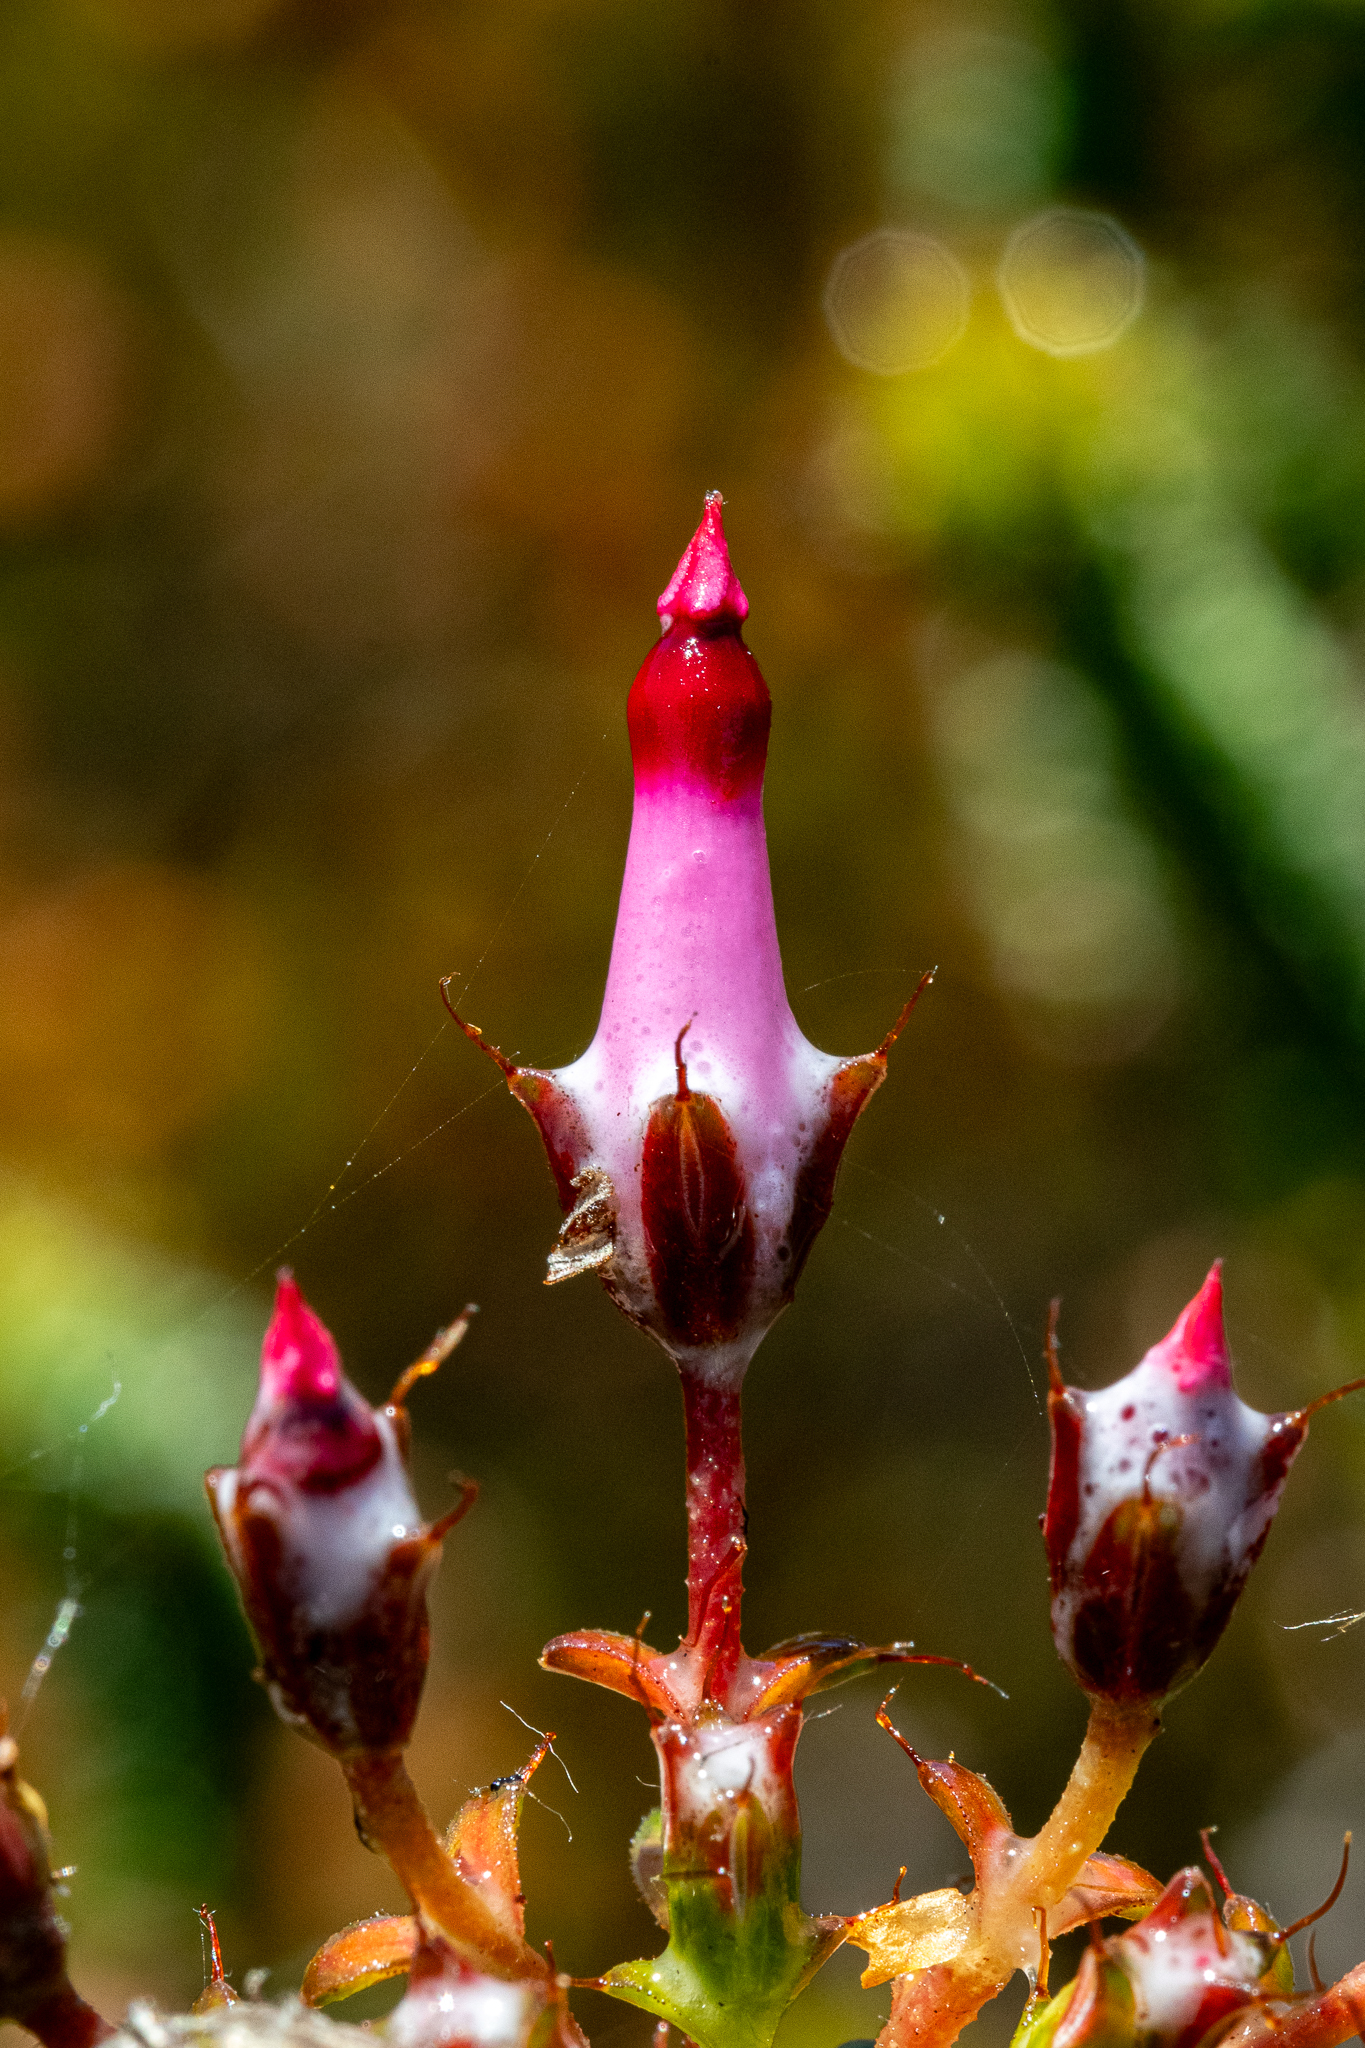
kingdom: Plantae
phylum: Tracheophyta
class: Magnoliopsida
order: Ericales
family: Ericaceae
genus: Erica
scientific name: Erica retorta
